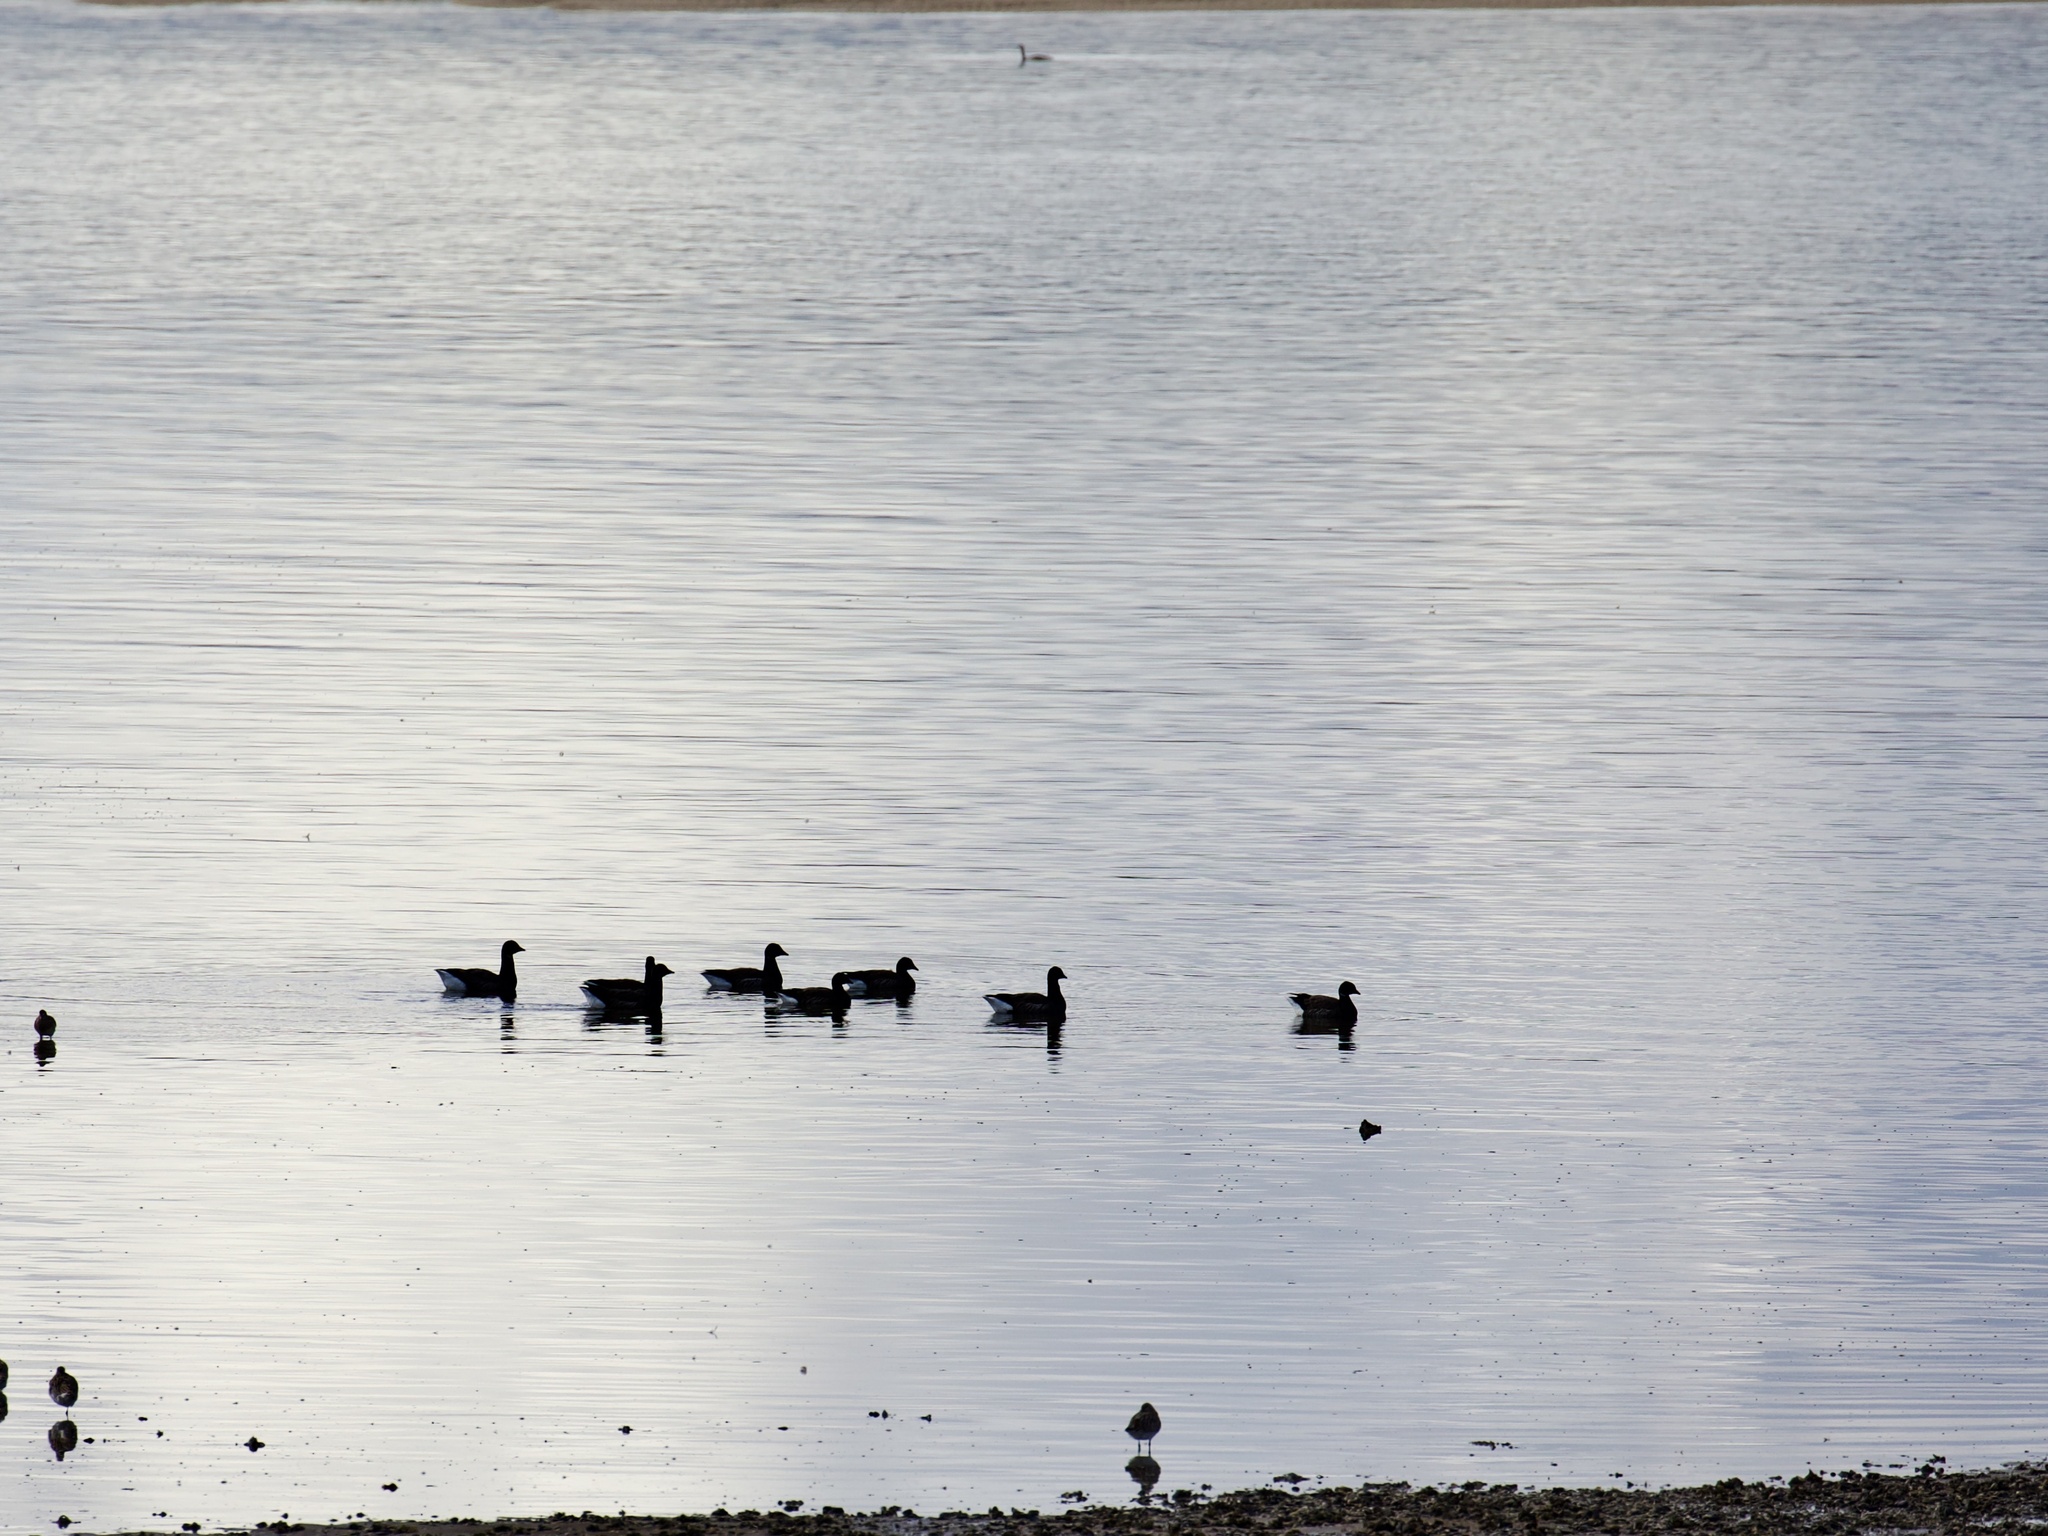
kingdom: Animalia
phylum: Chordata
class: Aves
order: Anseriformes
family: Anatidae
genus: Branta
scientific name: Branta bernicla
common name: Brant goose
